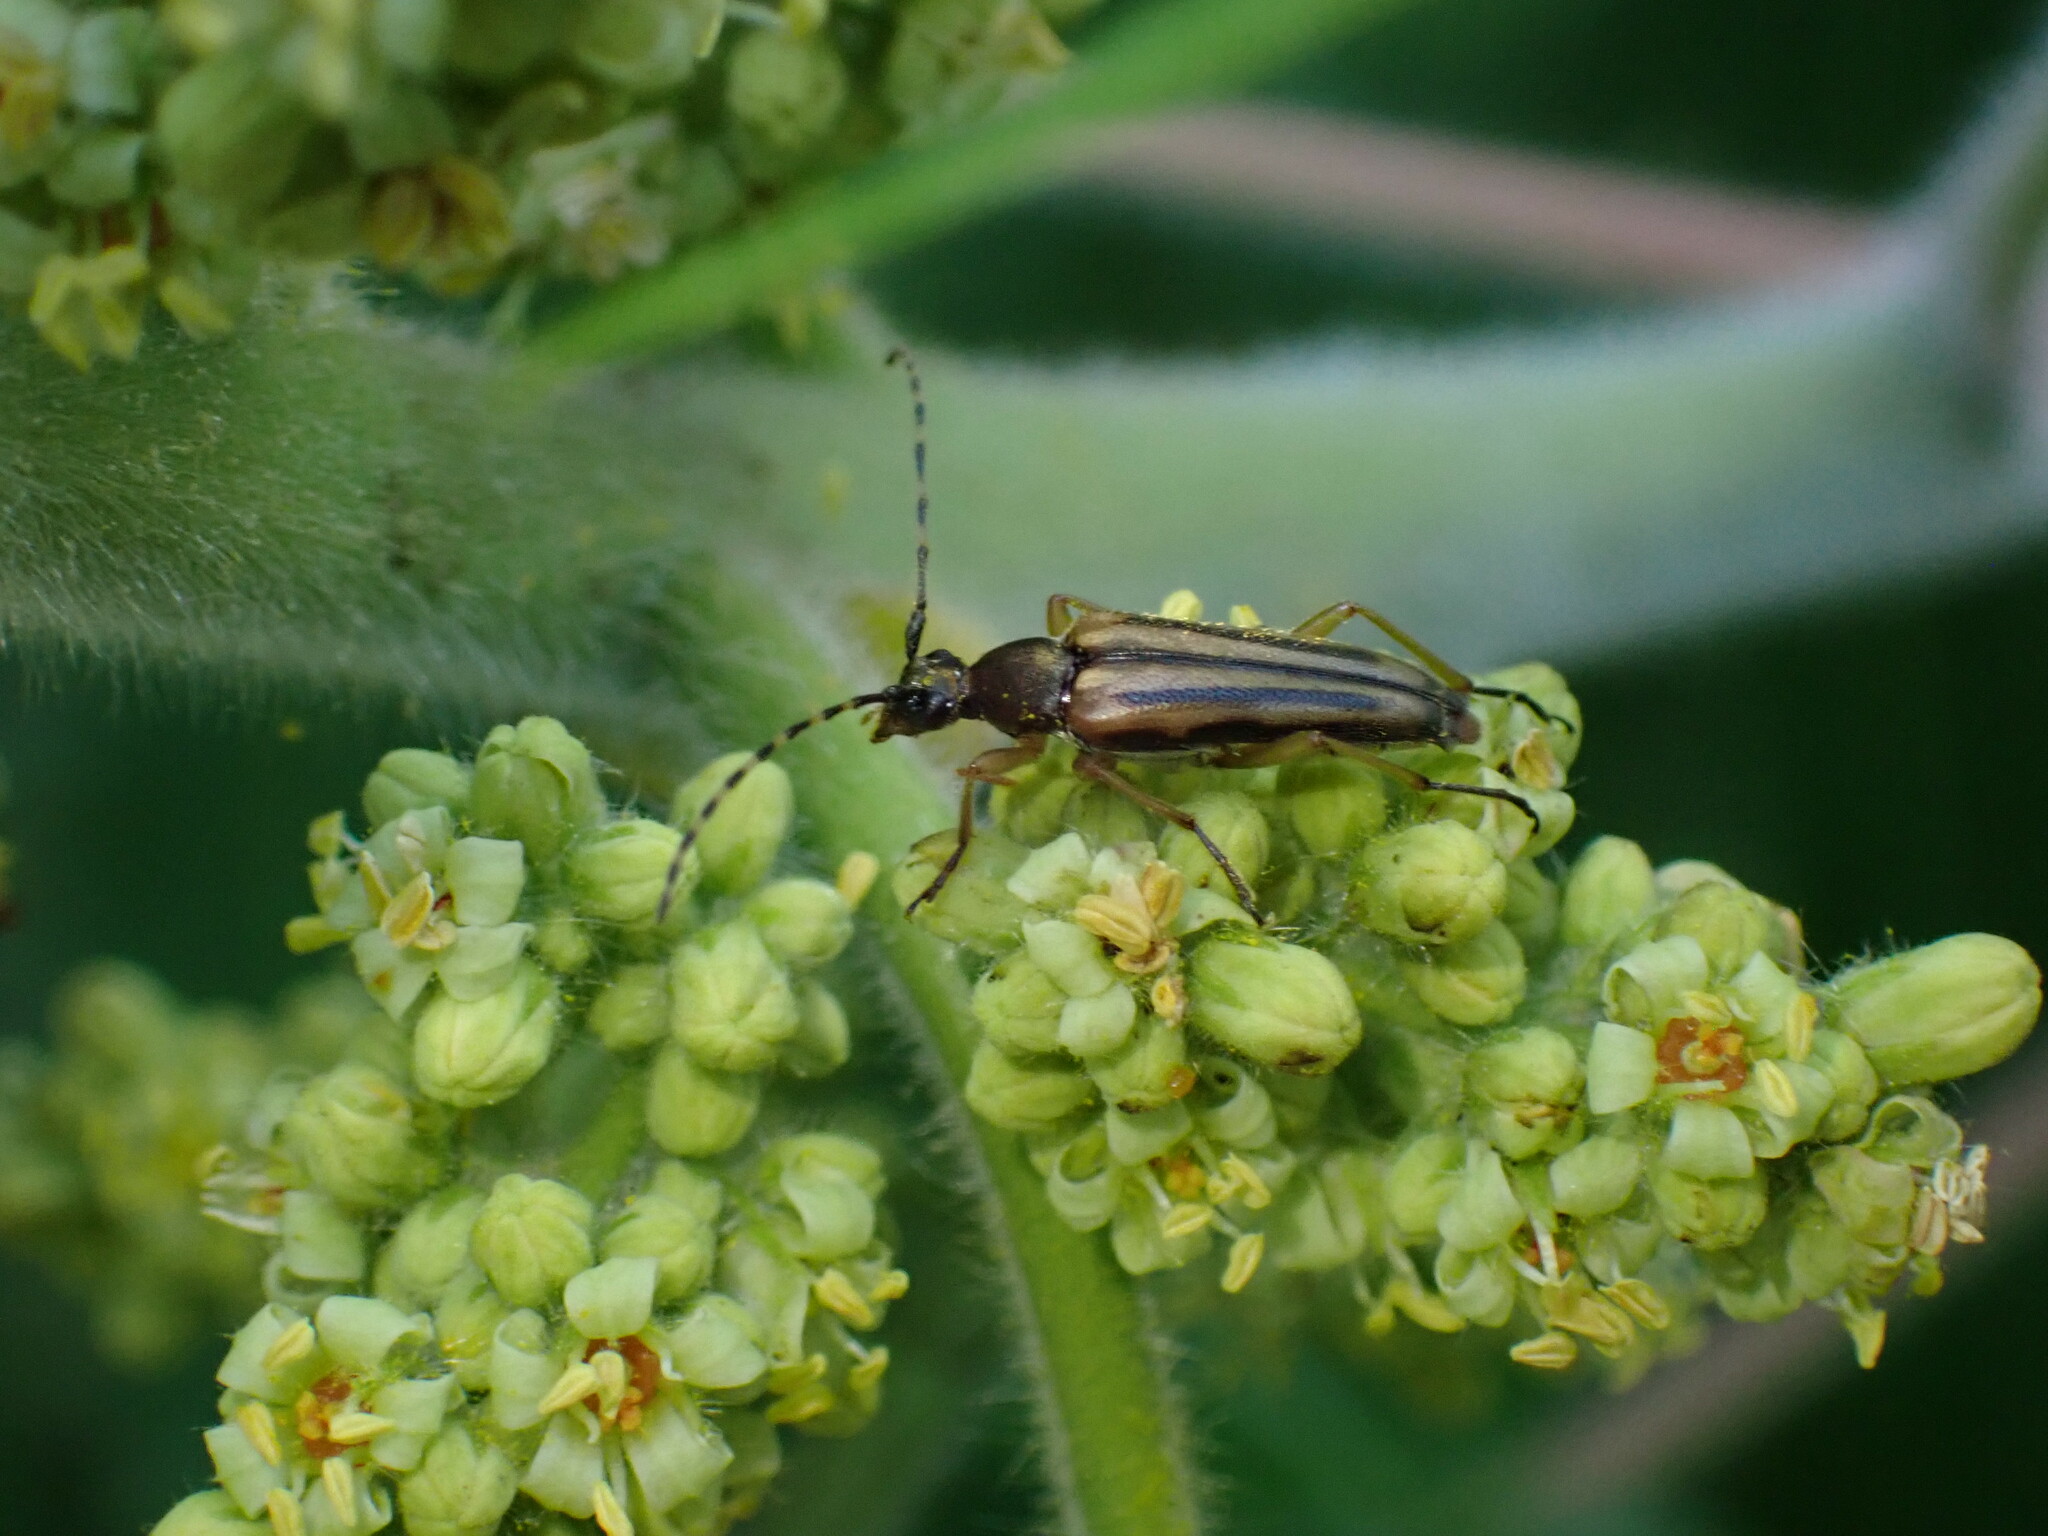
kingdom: Animalia
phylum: Arthropoda
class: Insecta
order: Coleoptera
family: Cerambycidae
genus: Analeptura
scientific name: Analeptura lineola
